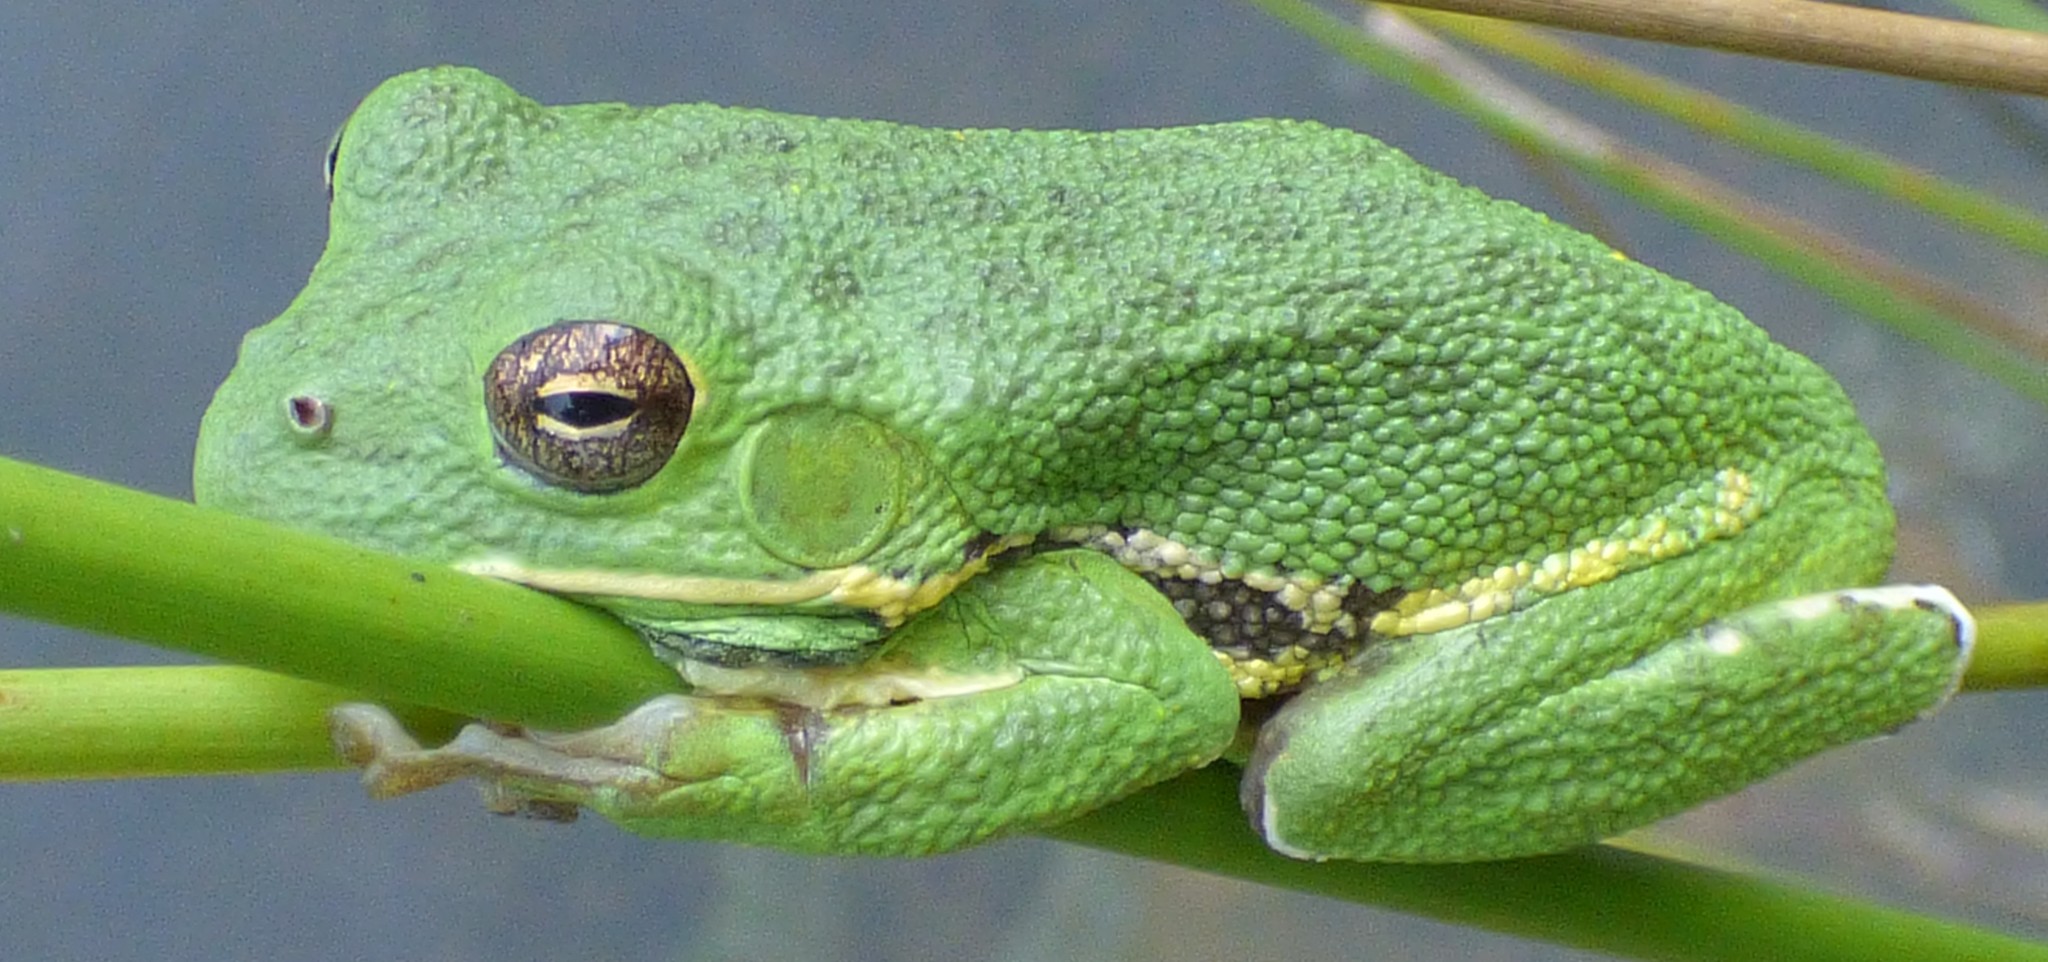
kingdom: Animalia
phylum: Chordata
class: Amphibia
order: Anura
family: Hylidae
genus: Dryophytes
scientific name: Dryophytes gratiosus
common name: Barking treefrog
